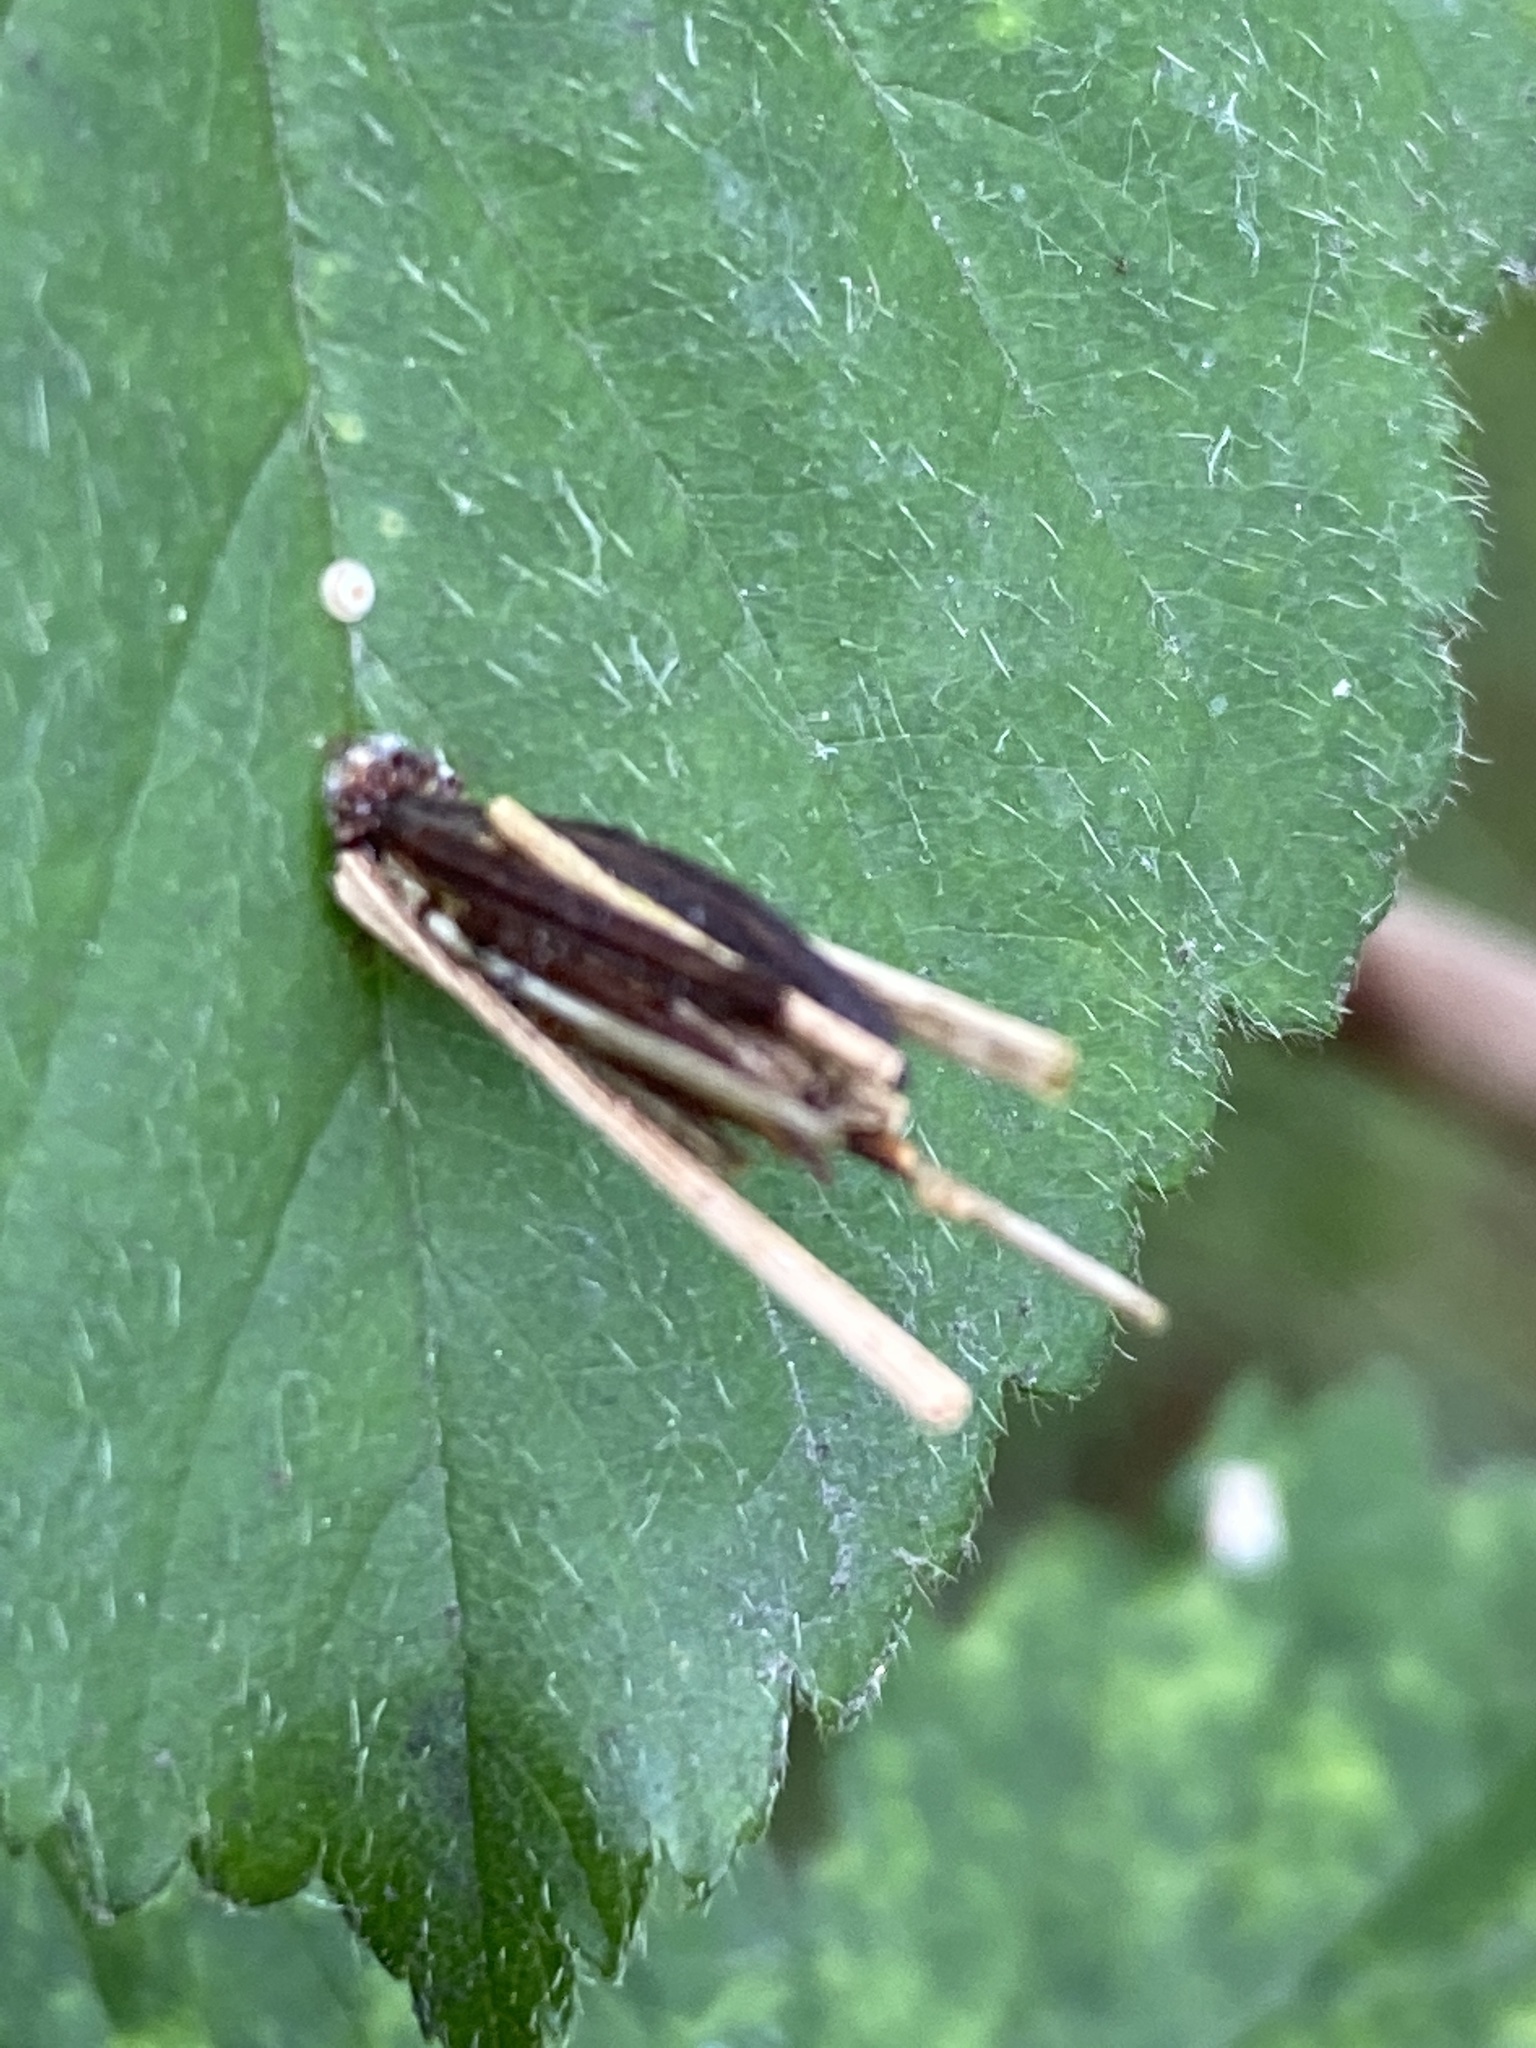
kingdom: Animalia
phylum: Arthropoda
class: Insecta
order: Lepidoptera
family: Psychidae
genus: Psyche
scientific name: Psyche casta
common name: Common sweep
